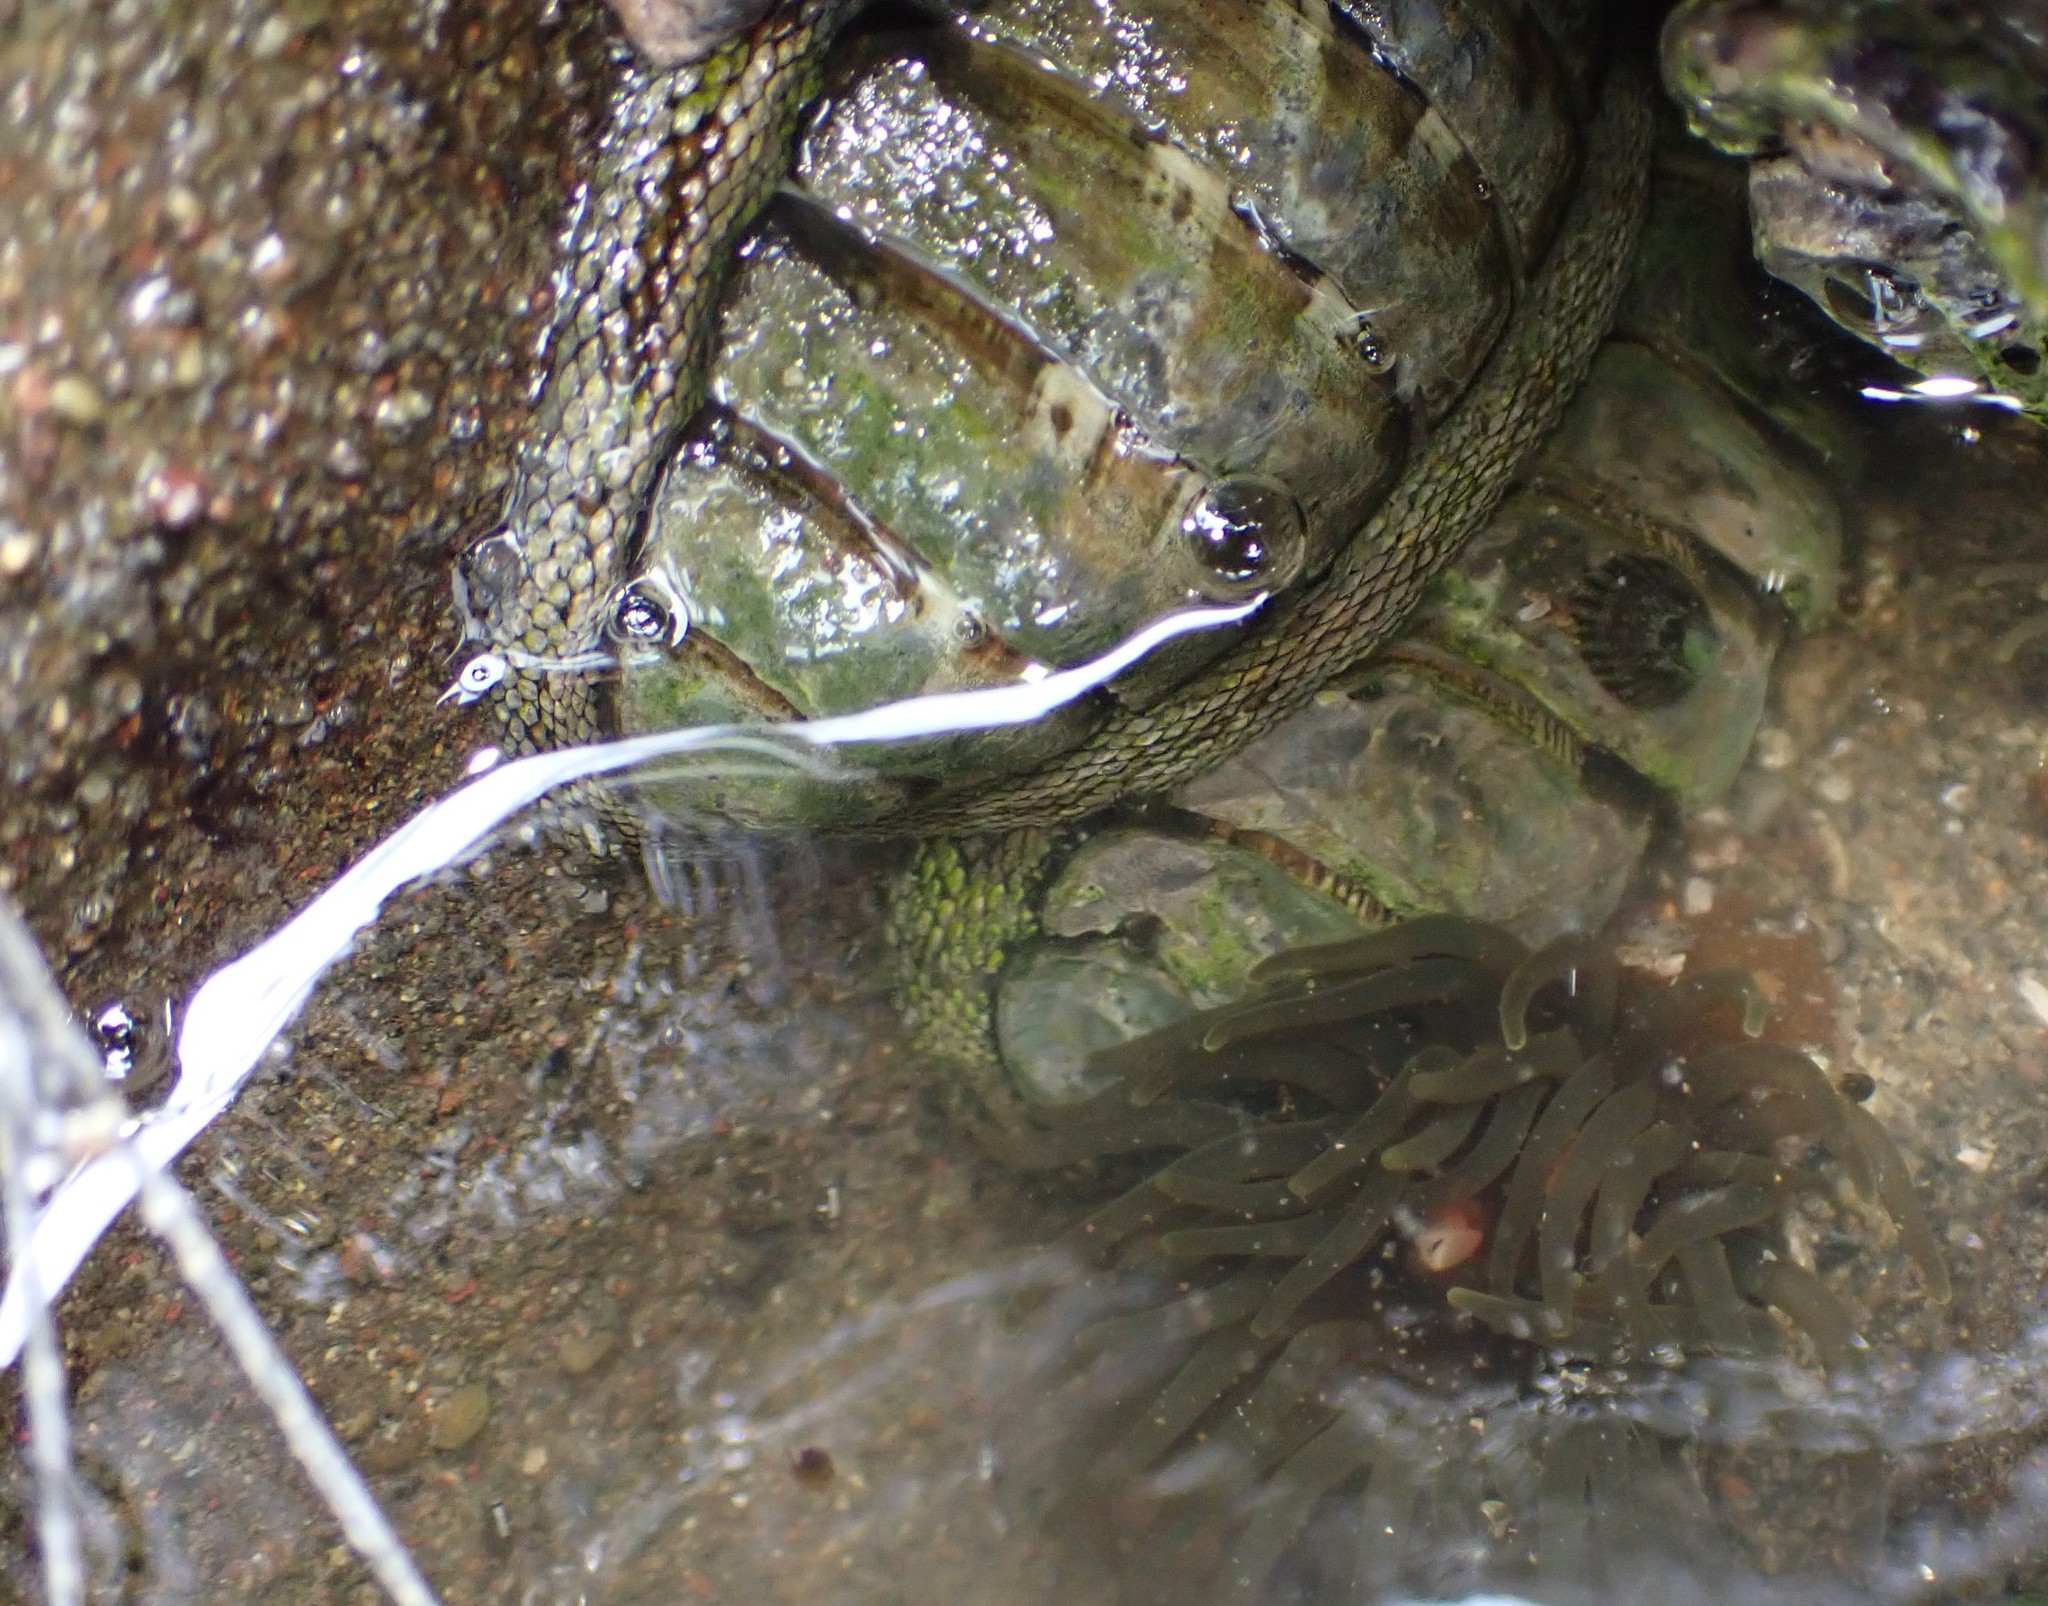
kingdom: Animalia
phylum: Cnidaria
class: Anthozoa
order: Actiniaria
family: Actiniidae
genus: Isactinia
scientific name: Isactinia olivacea
